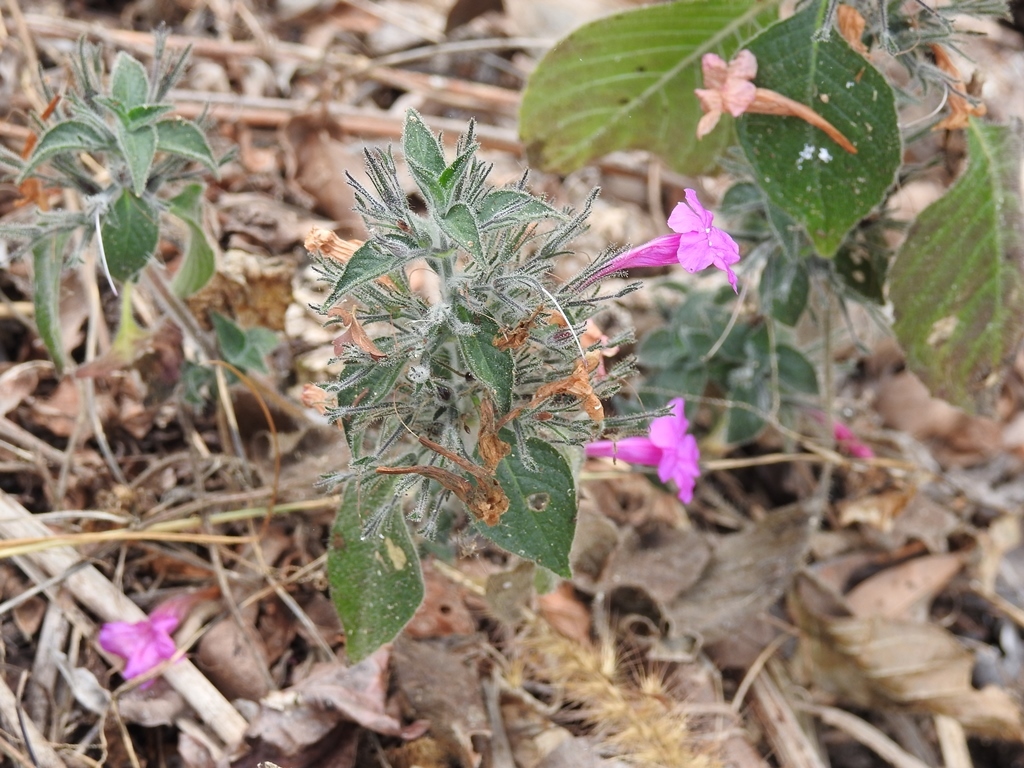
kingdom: Plantae
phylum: Tracheophyta
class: Magnoliopsida
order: Lamiales
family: Acanthaceae
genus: Ruellia
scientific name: Ruellia inundata
